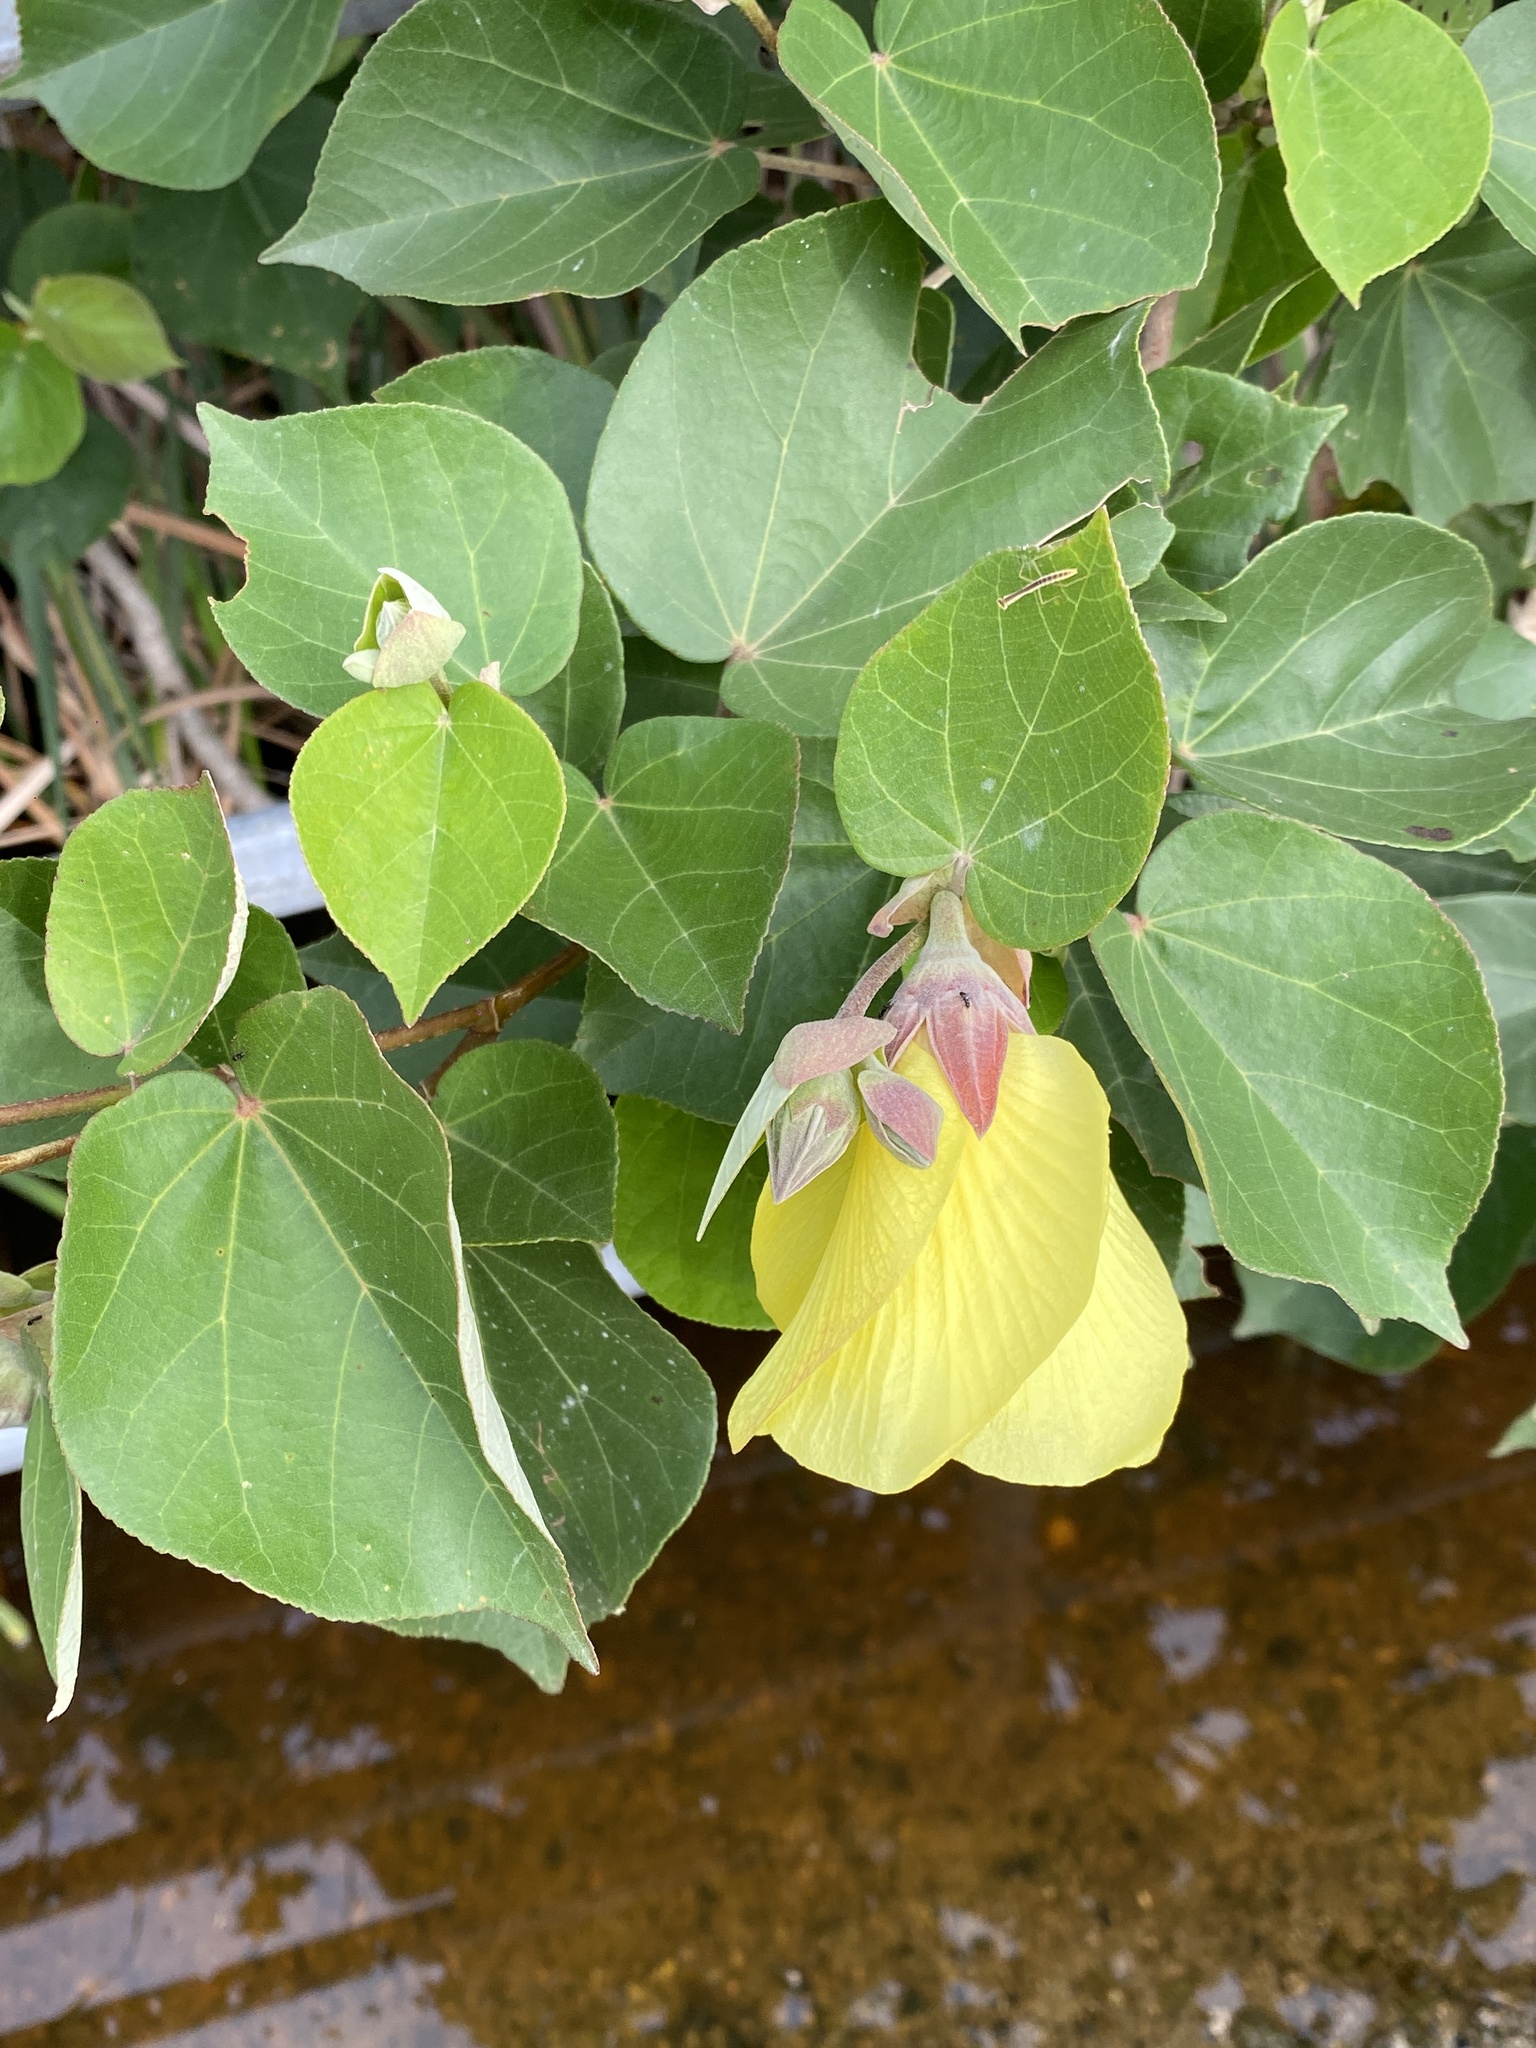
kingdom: Plantae
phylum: Tracheophyta
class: Magnoliopsida
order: Malvales
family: Malvaceae
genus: Talipariti
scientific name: Talipariti tiliaceum
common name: Sea hibiscus
